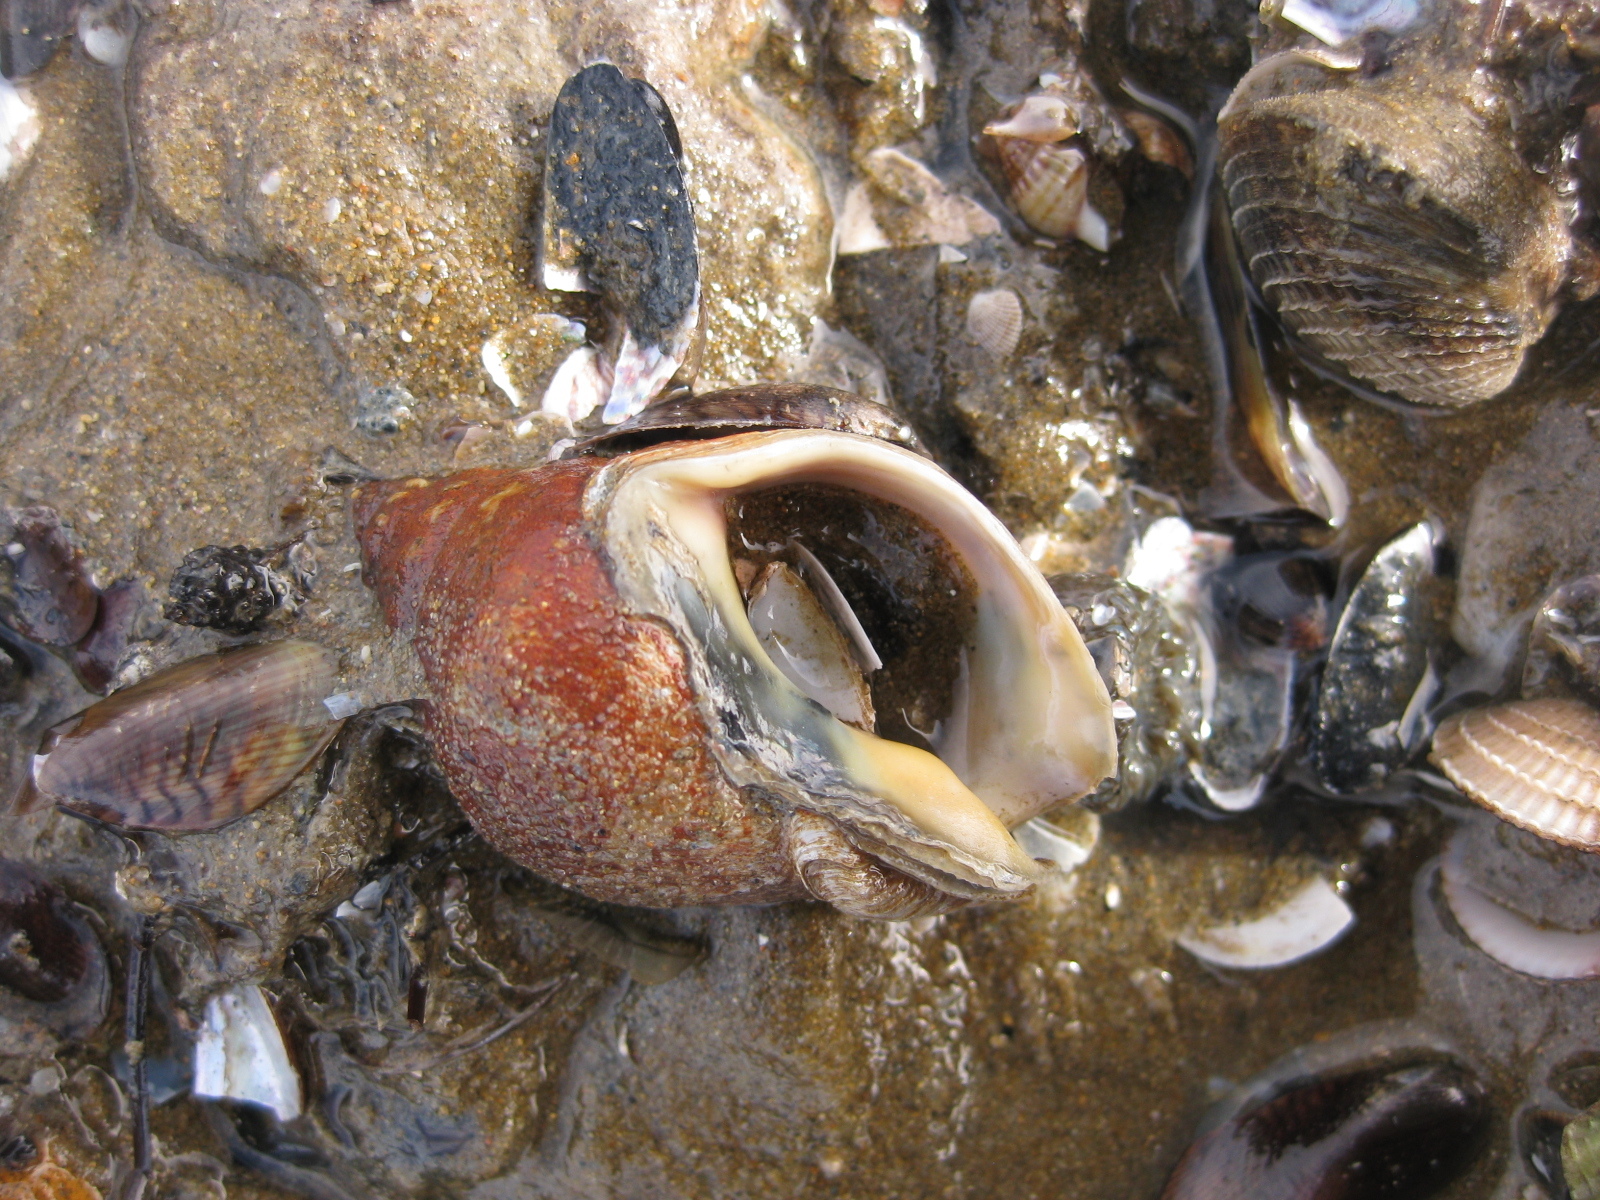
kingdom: Animalia
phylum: Mollusca
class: Gastropoda
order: Neogastropoda
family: Cominellidae
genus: Cominella
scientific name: Cominella adspersa
